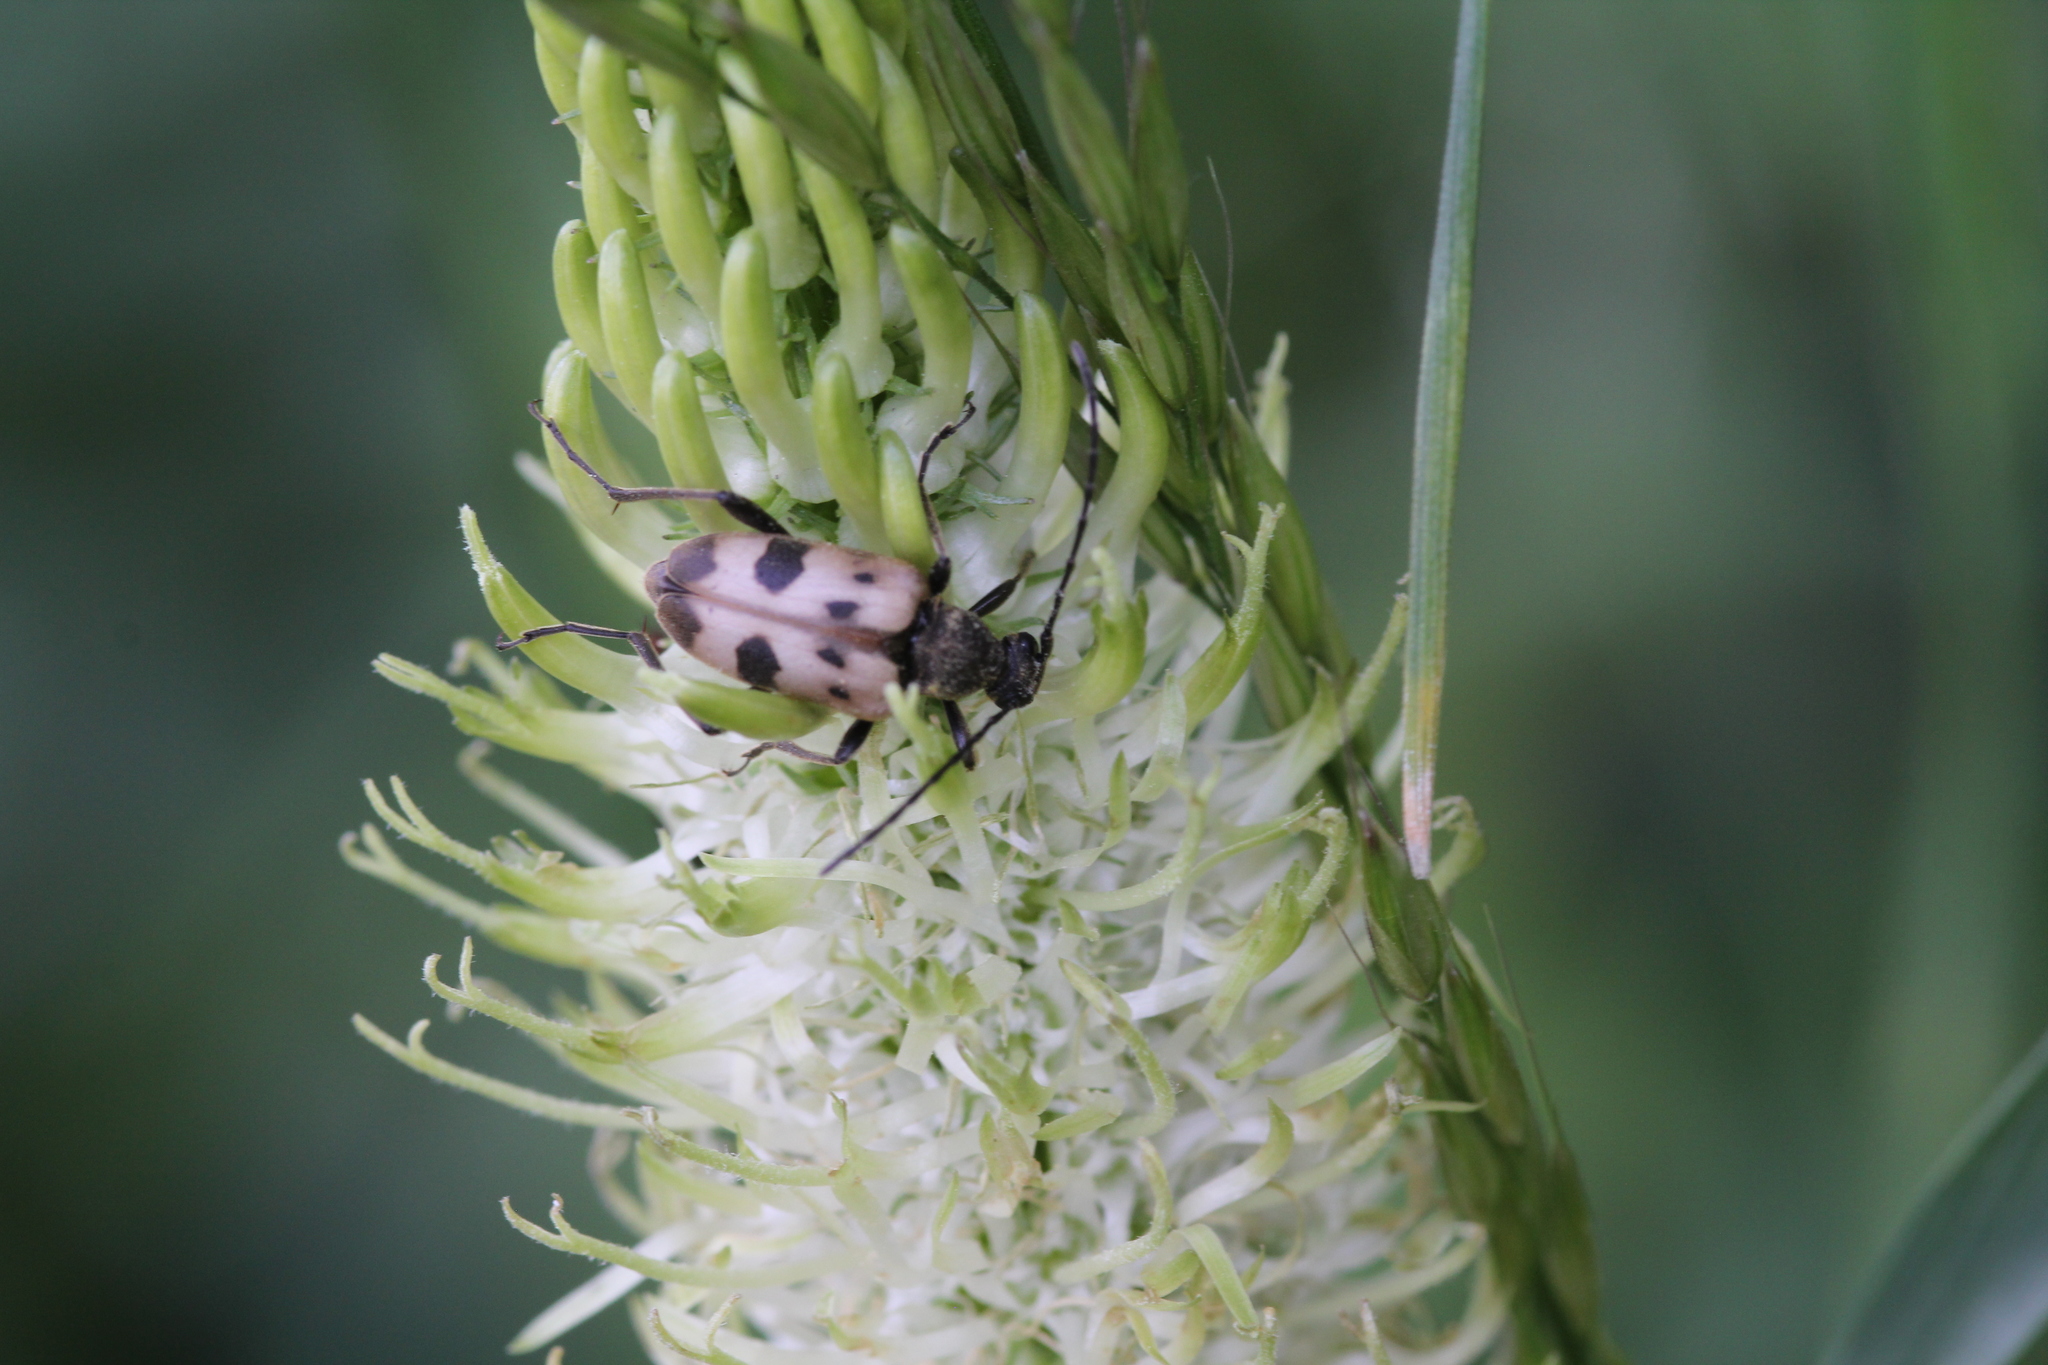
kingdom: Animalia
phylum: Arthropoda
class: Insecta
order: Coleoptera
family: Cerambycidae
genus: Pachytodes
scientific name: Pachytodes cerambyciformis
